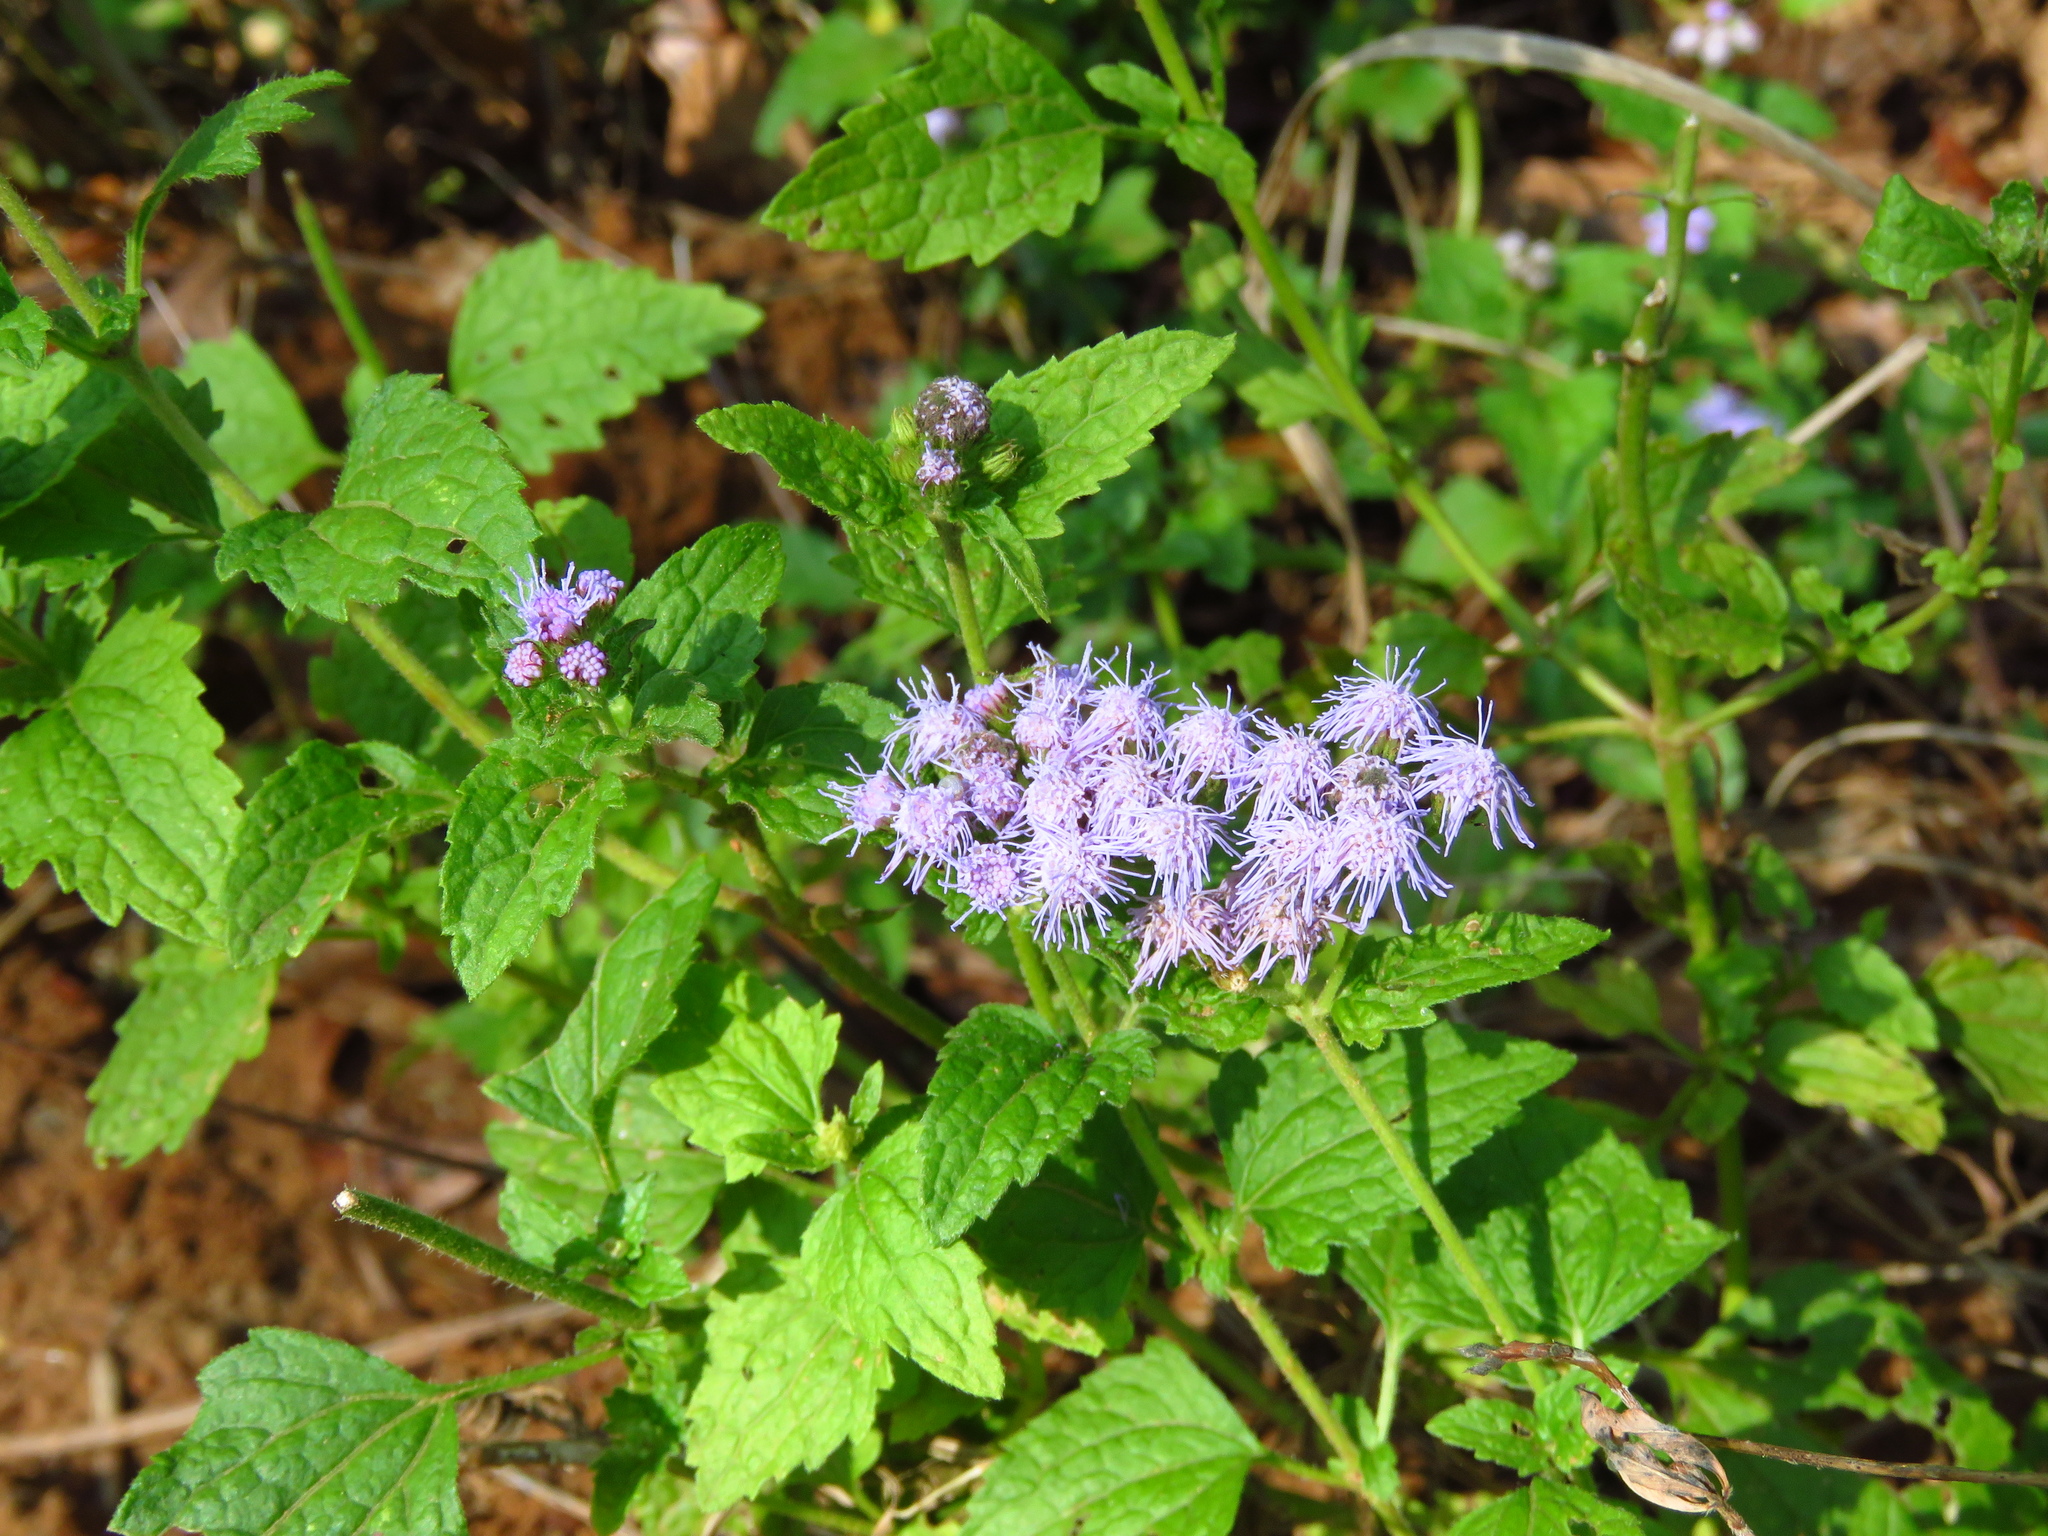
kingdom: Plantae
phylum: Tracheophyta
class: Magnoliopsida
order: Asterales
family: Asteraceae
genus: Conoclinium
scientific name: Conoclinium coelestinum
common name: Blue mistflower
